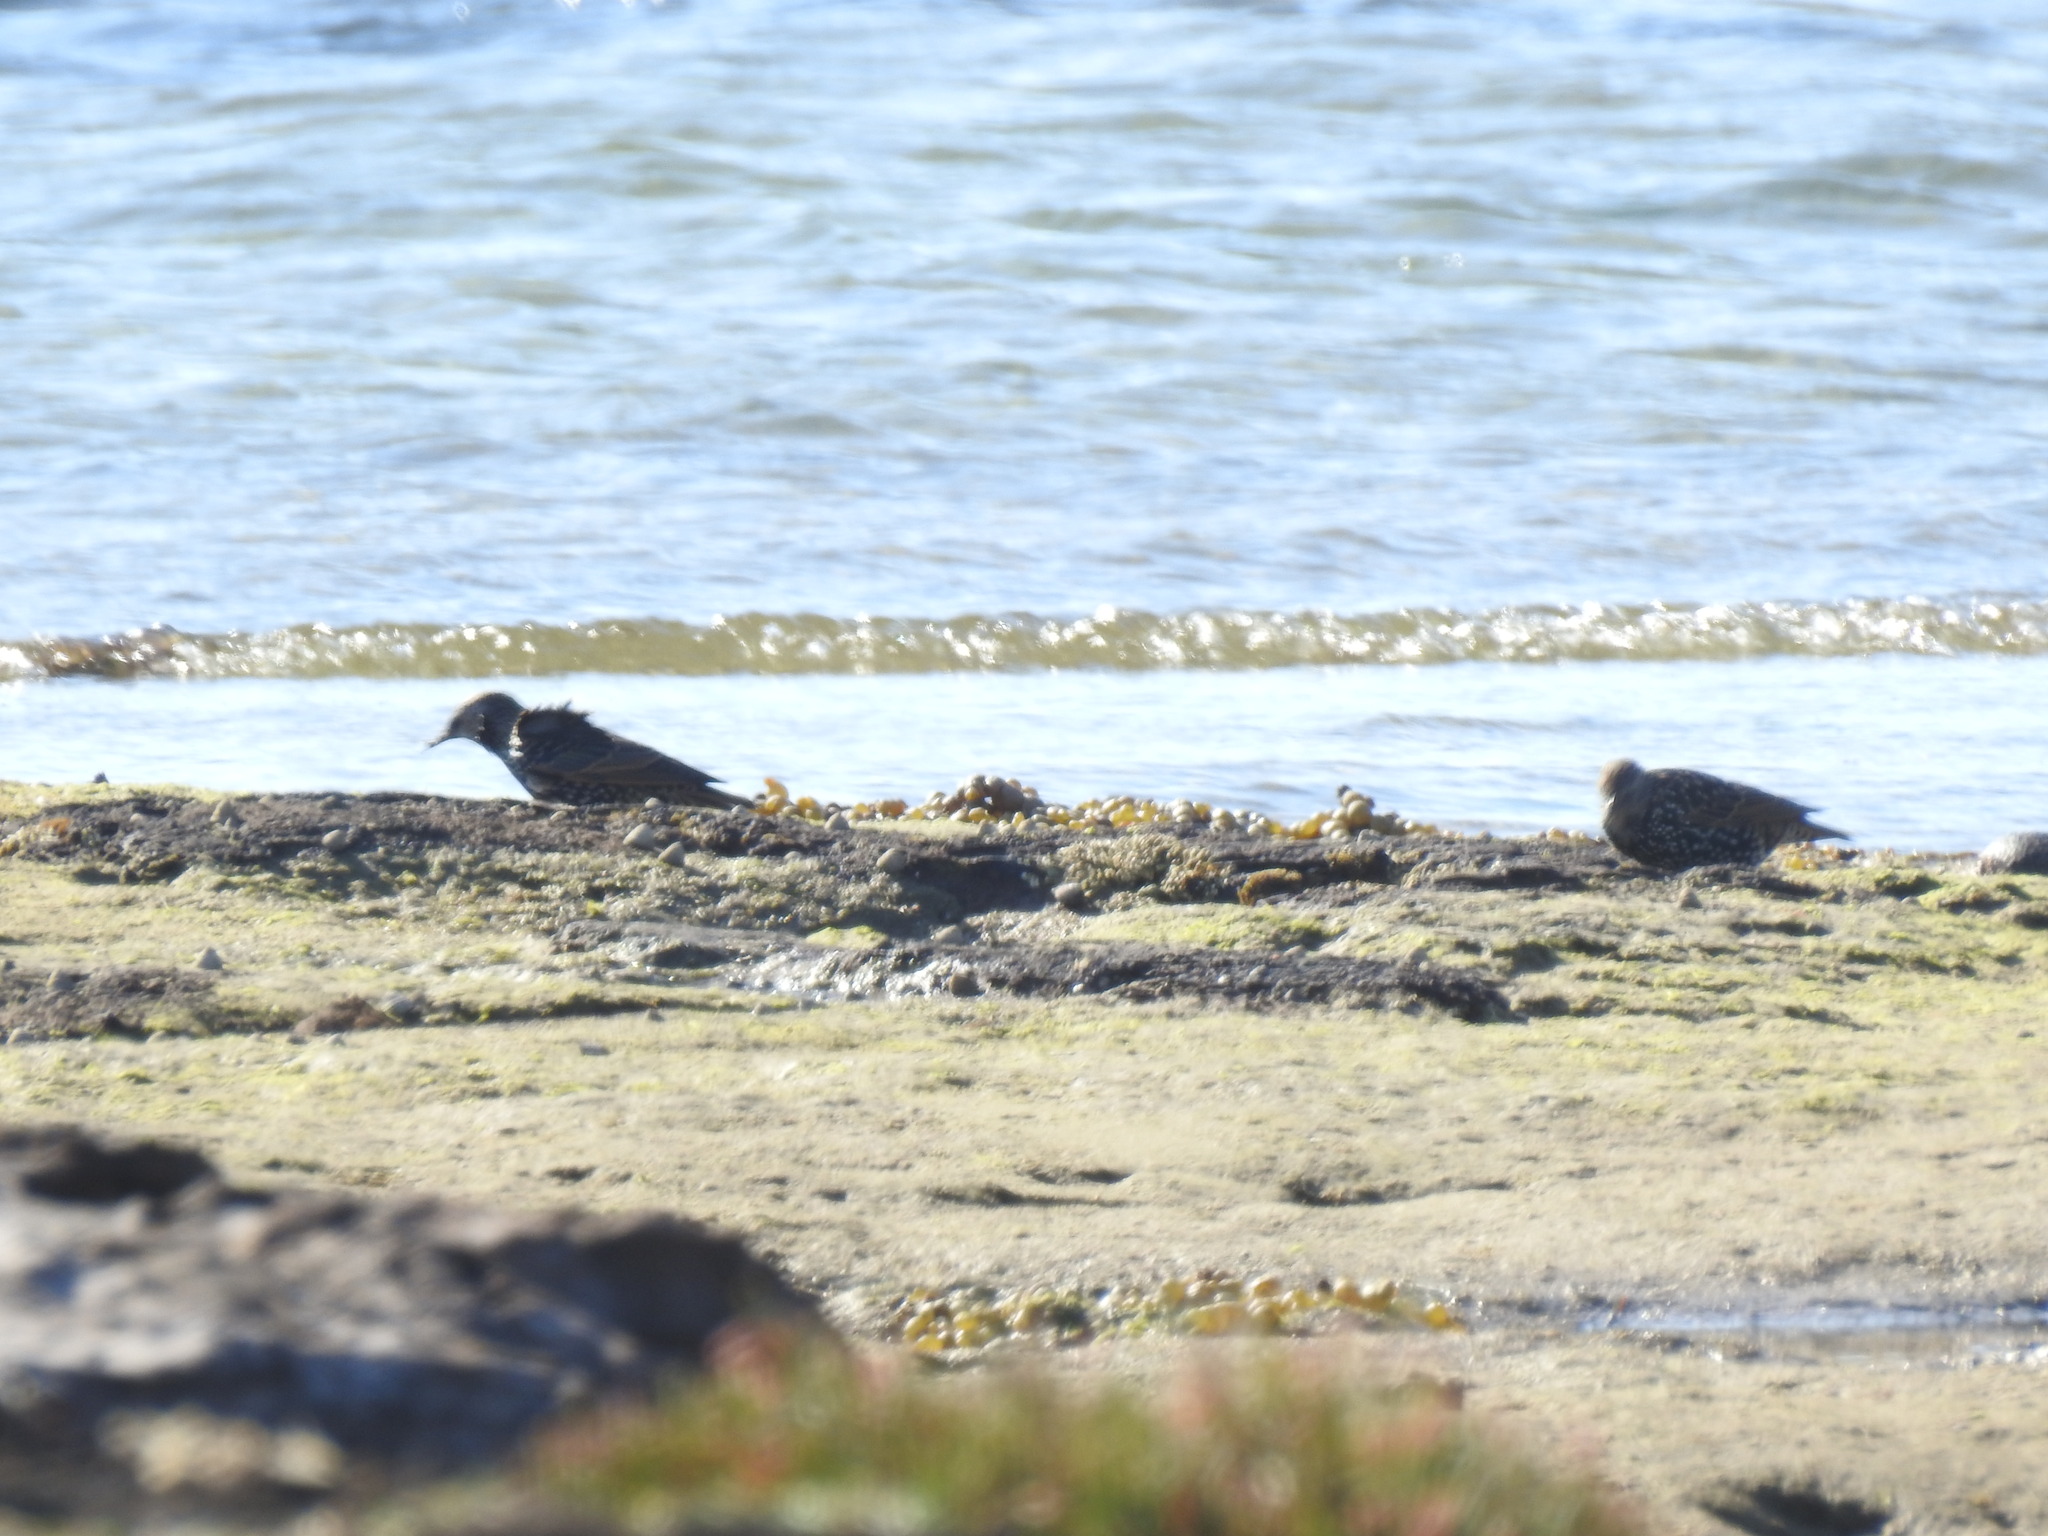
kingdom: Animalia
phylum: Chordata
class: Aves
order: Passeriformes
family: Sturnidae
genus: Sturnus
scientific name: Sturnus vulgaris
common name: Common starling
